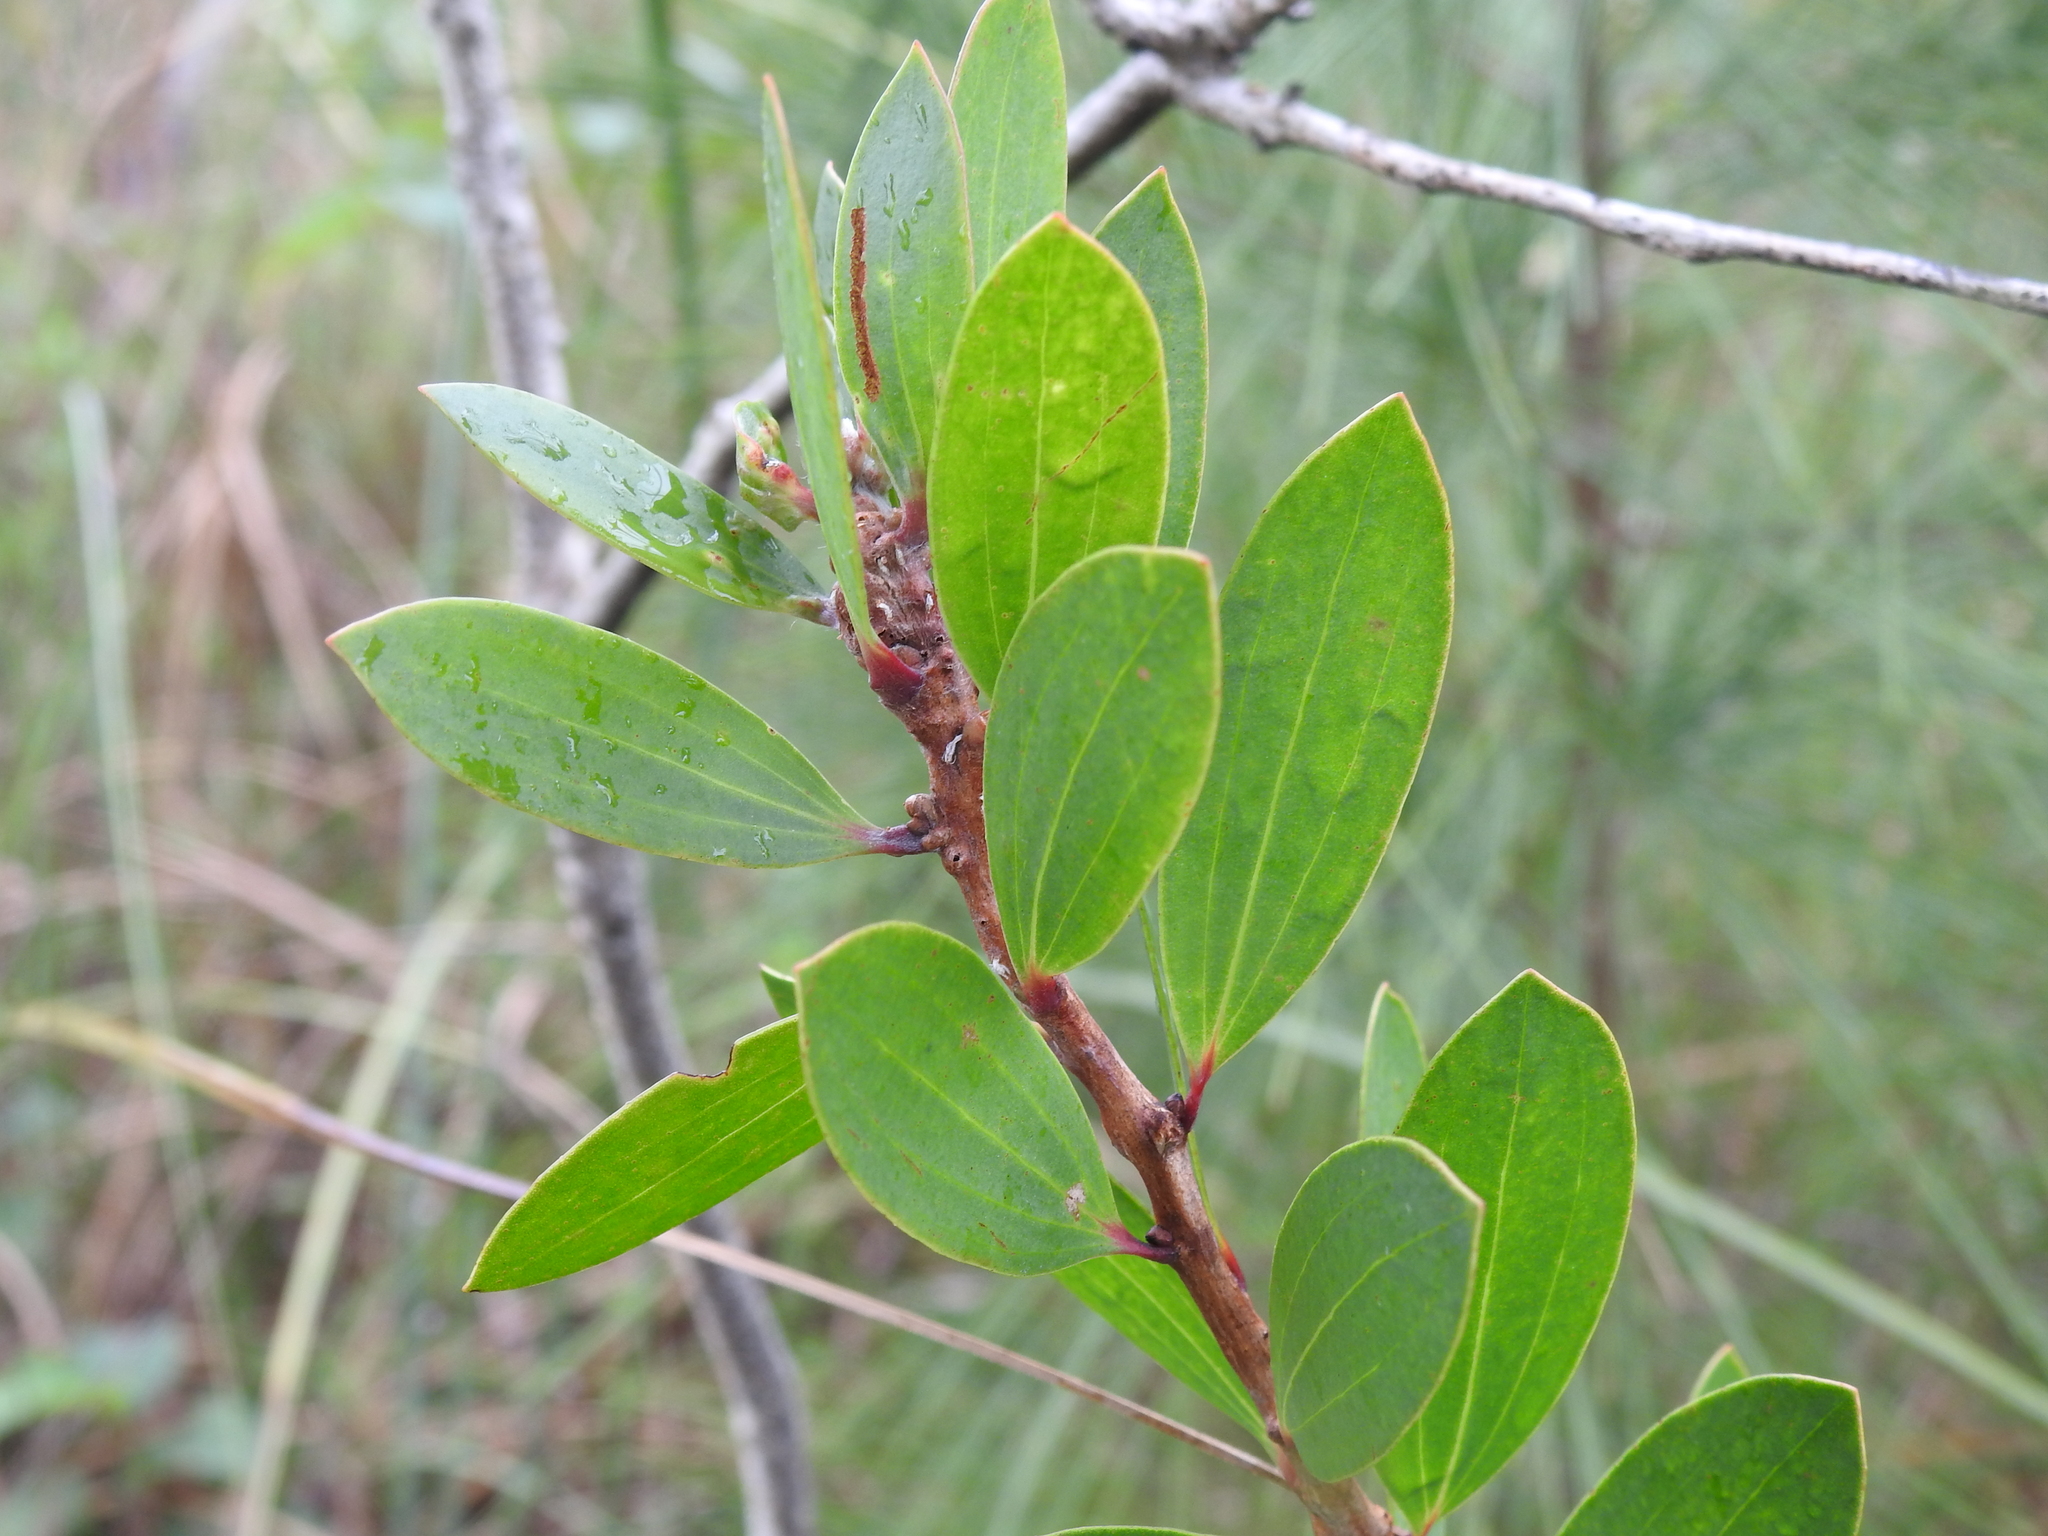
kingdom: Animalia
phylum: Arthropoda
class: Insecta
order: Diptera
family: Cecidomyiidae
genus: Lophodiplosis
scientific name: Lophodiplosis trifida
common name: Melaleuca gall midge
